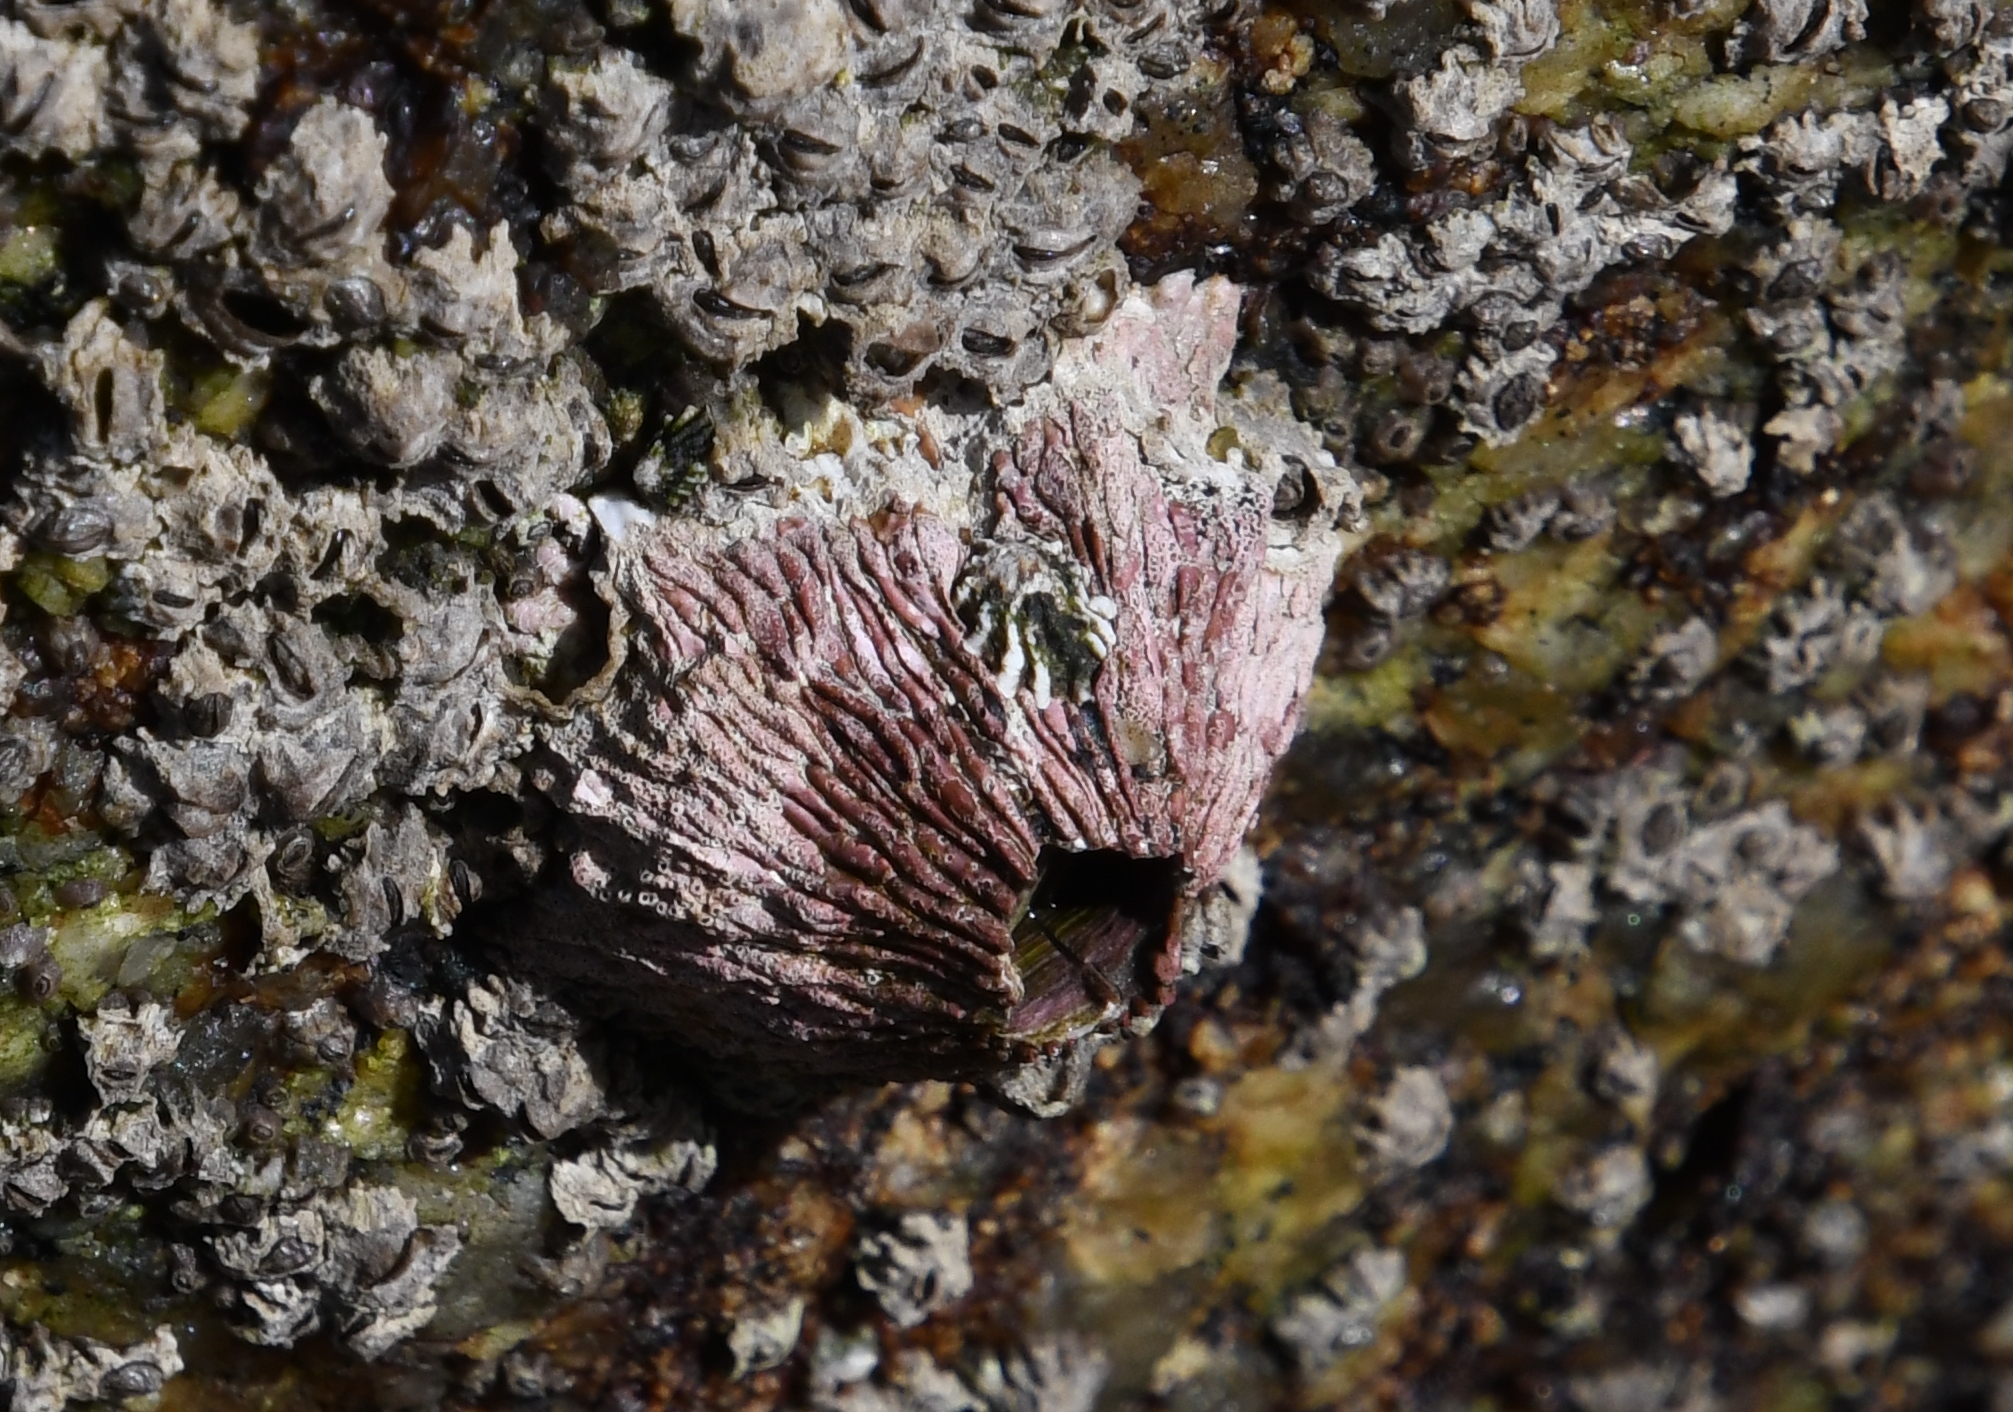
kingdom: Animalia
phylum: Arthropoda
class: Maxillopoda
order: Sessilia
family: Tetraclitidae
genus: Tetraclita
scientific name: Tetraclita rubescens
